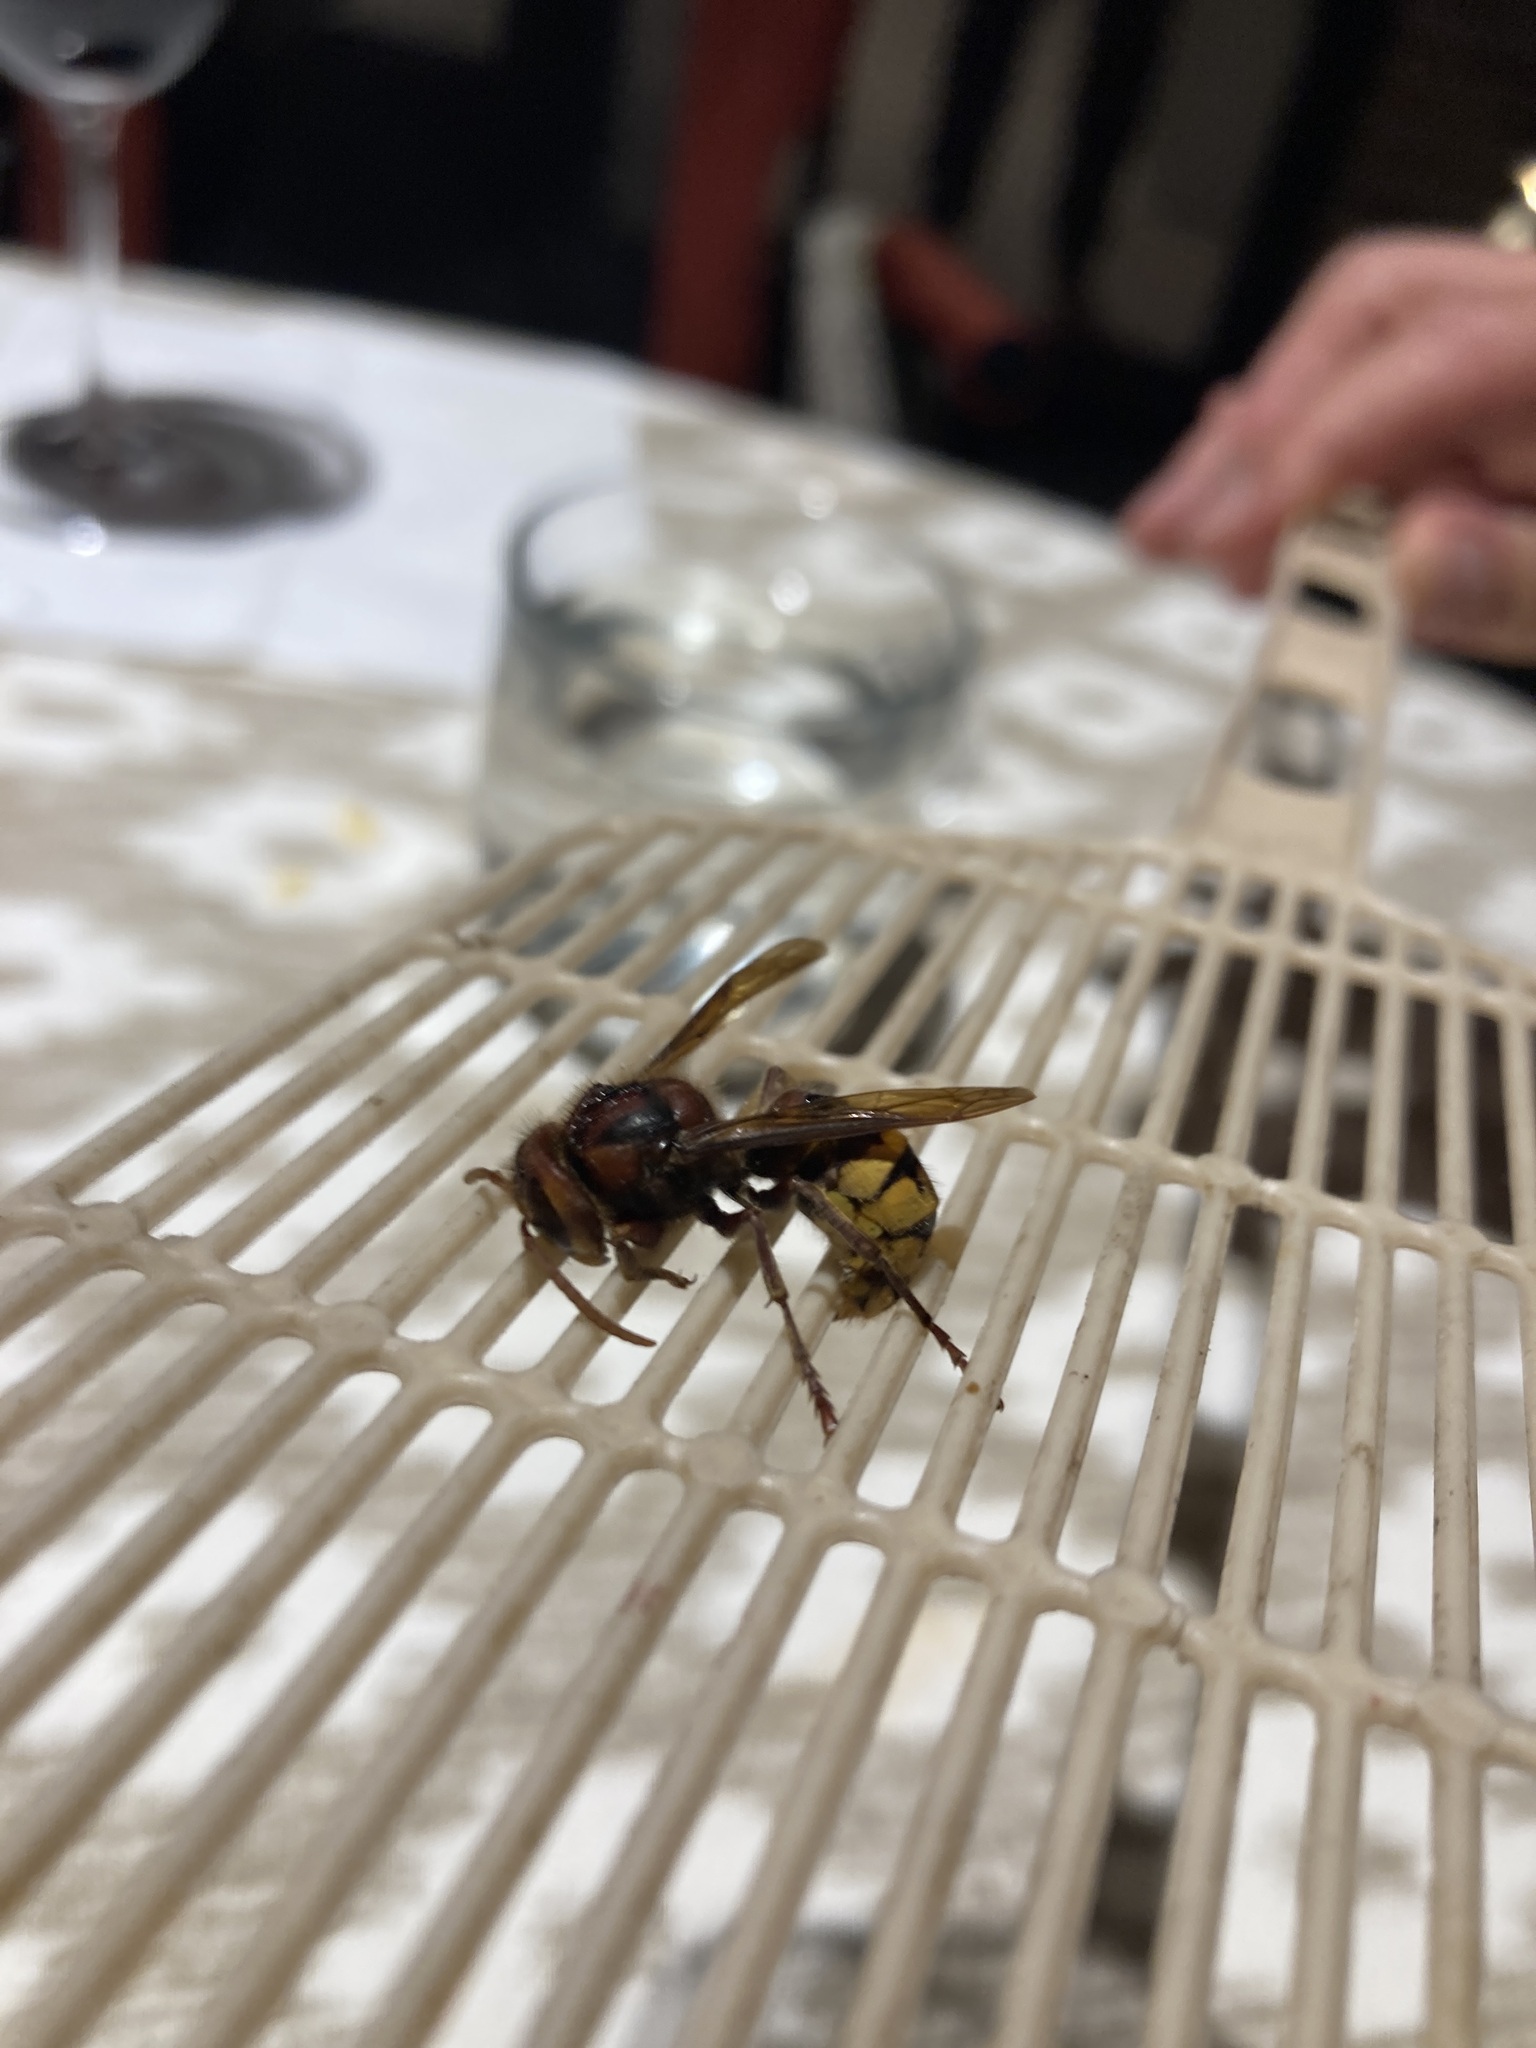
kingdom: Animalia
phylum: Arthropoda
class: Insecta
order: Hymenoptera
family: Vespidae
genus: Vespa
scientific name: Vespa crabro
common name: Hornet
